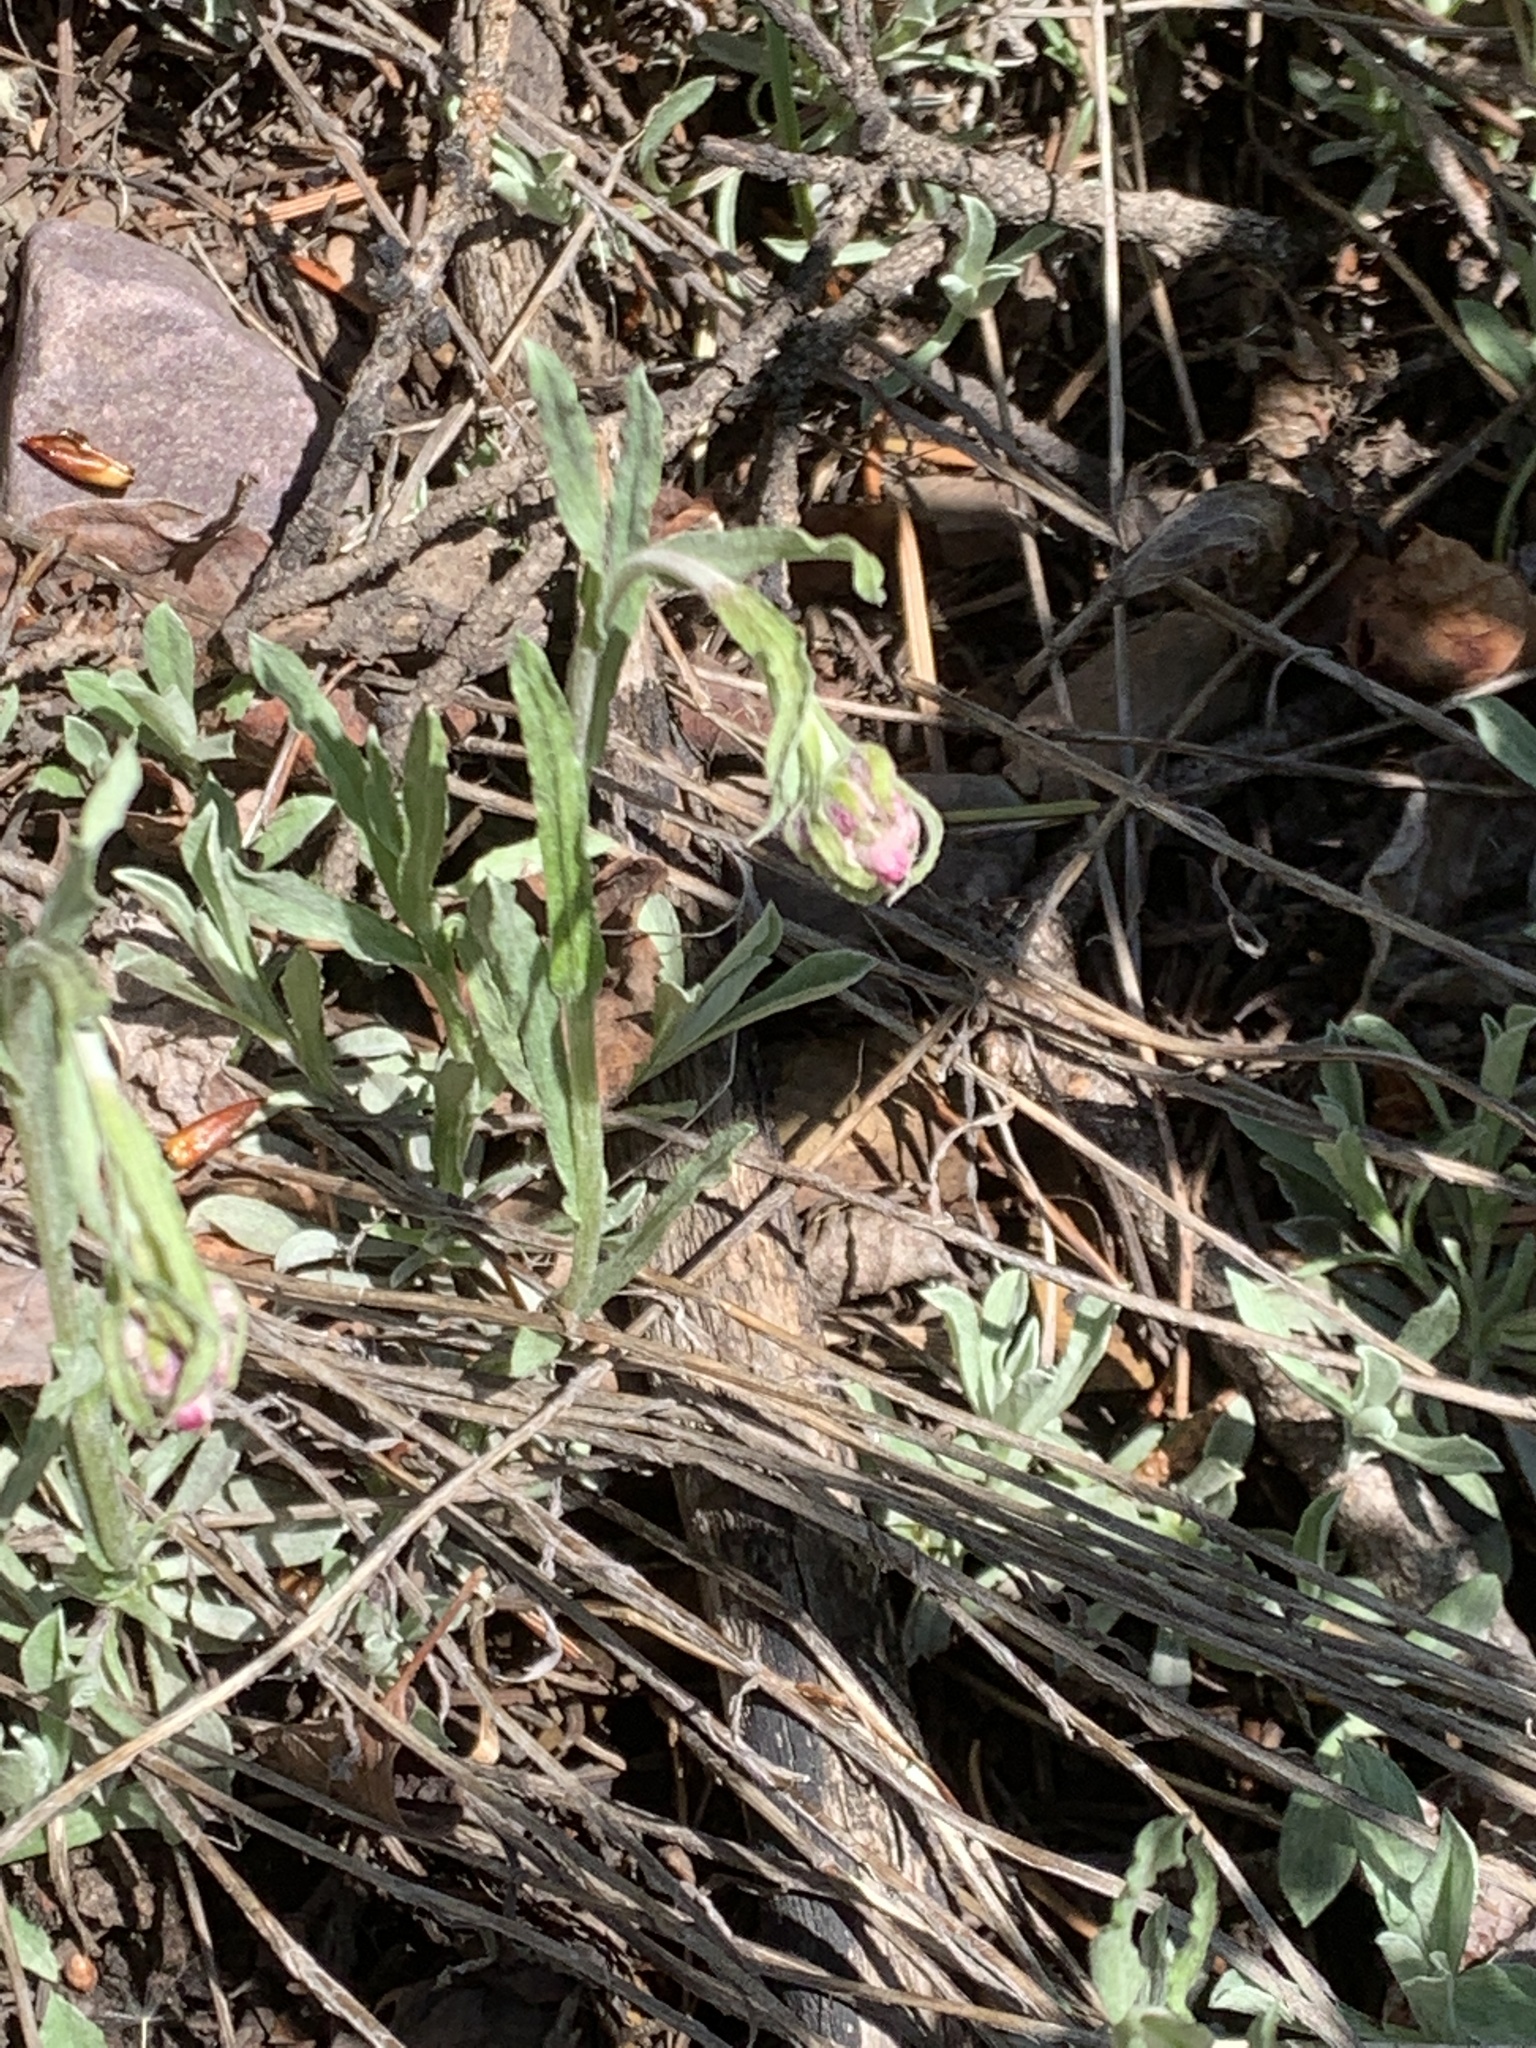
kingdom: Plantae
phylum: Tracheophyta
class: Magnoliopsida
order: Asterales
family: Asteraceae
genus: Antennaria
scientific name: Antennaria rosea
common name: Rosy pussytoes
